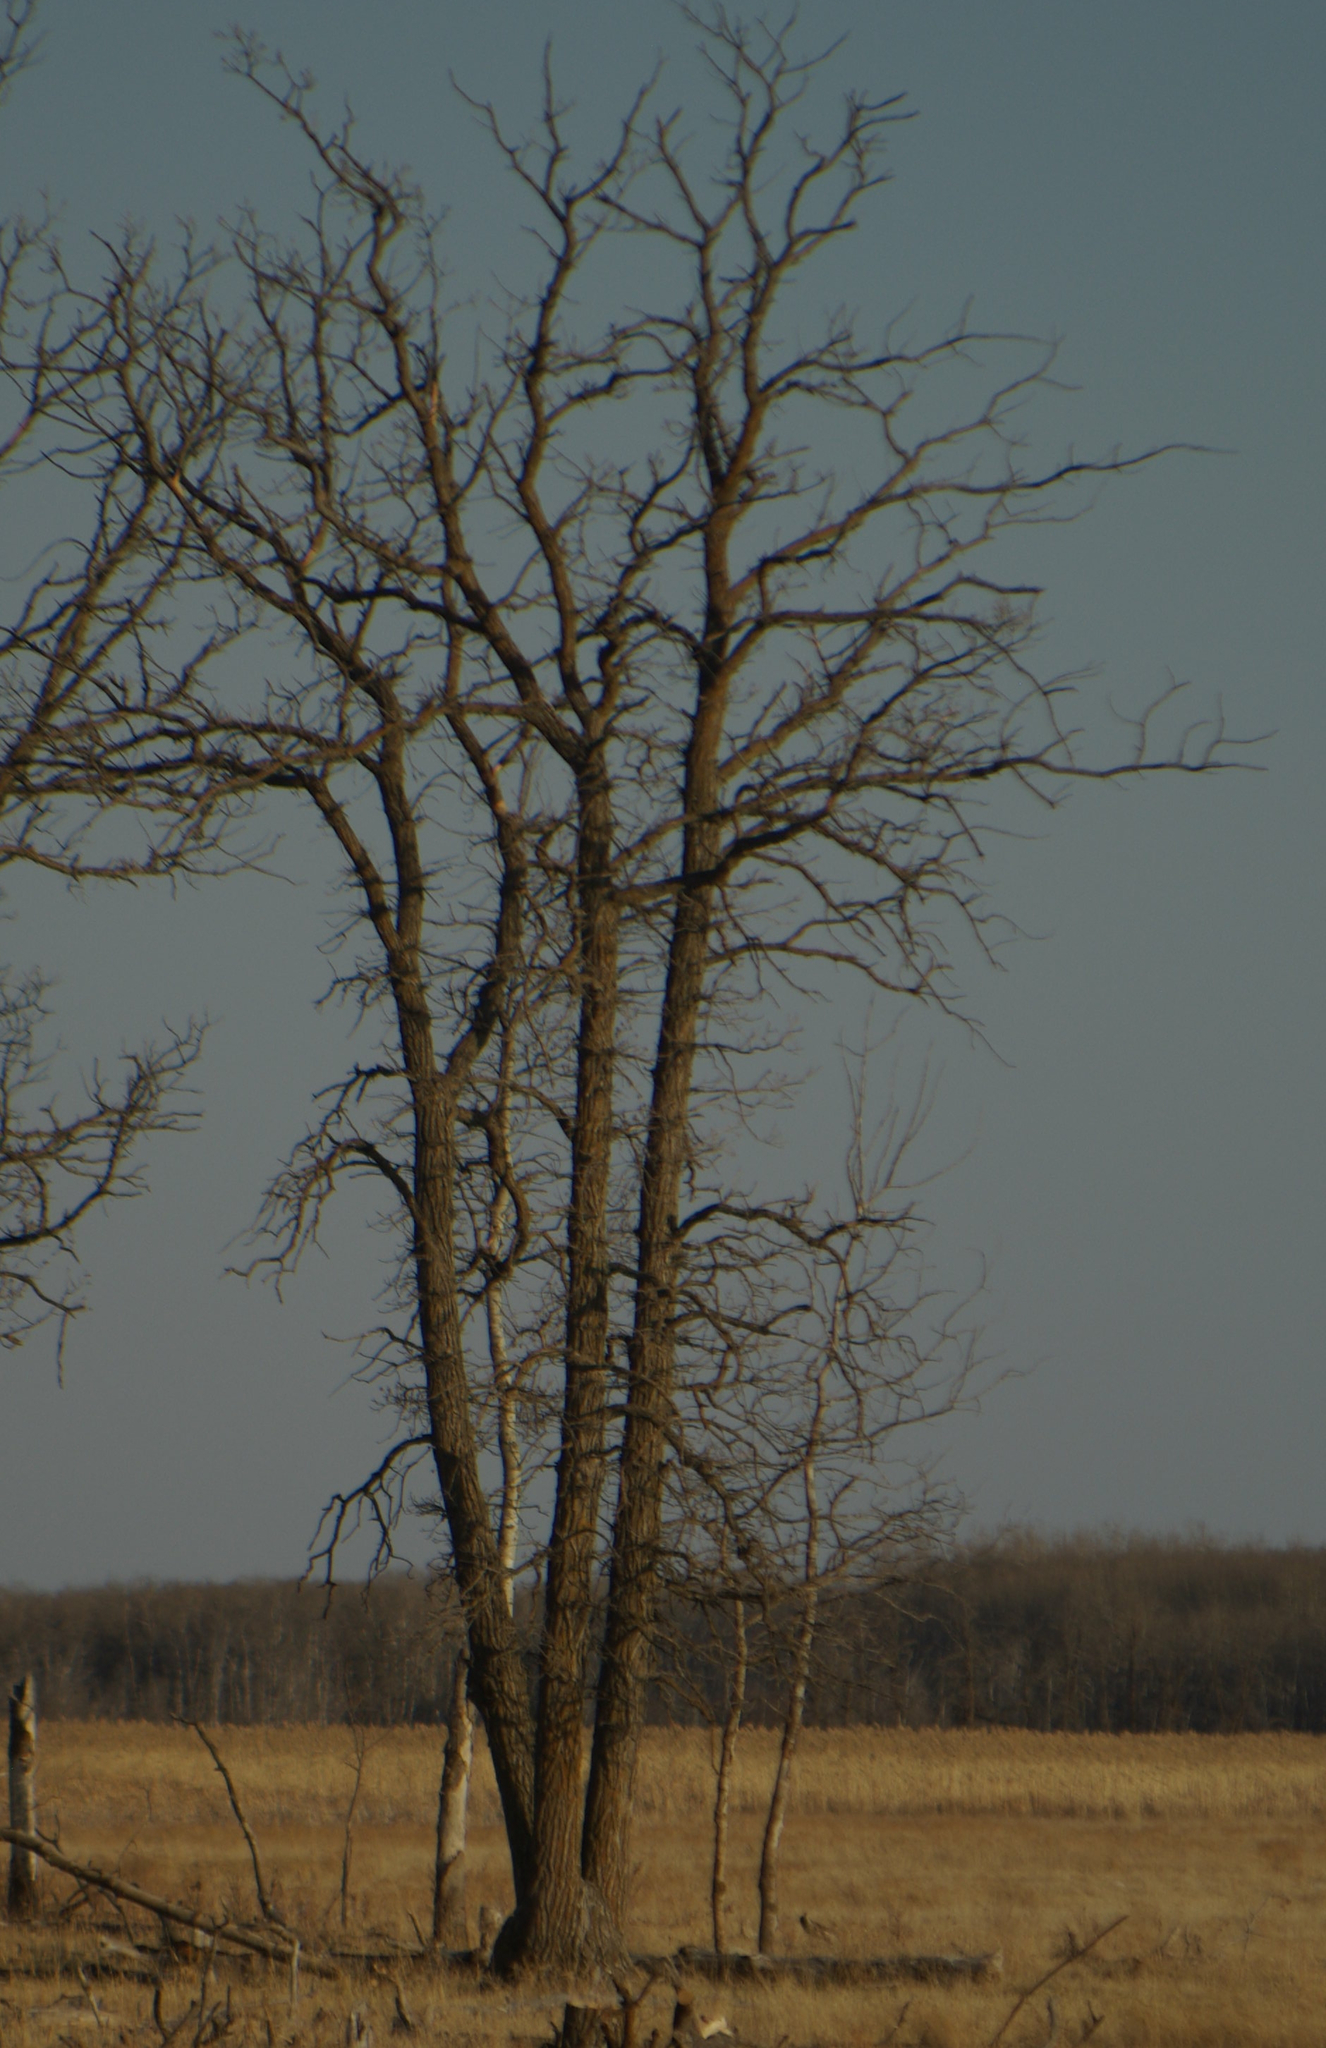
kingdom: Plantae
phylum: Tracheophyta
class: Magnoliopsida
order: Fagales
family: Fagaceae
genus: Quercus
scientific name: Quercus macrocarpa
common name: Bur oak
